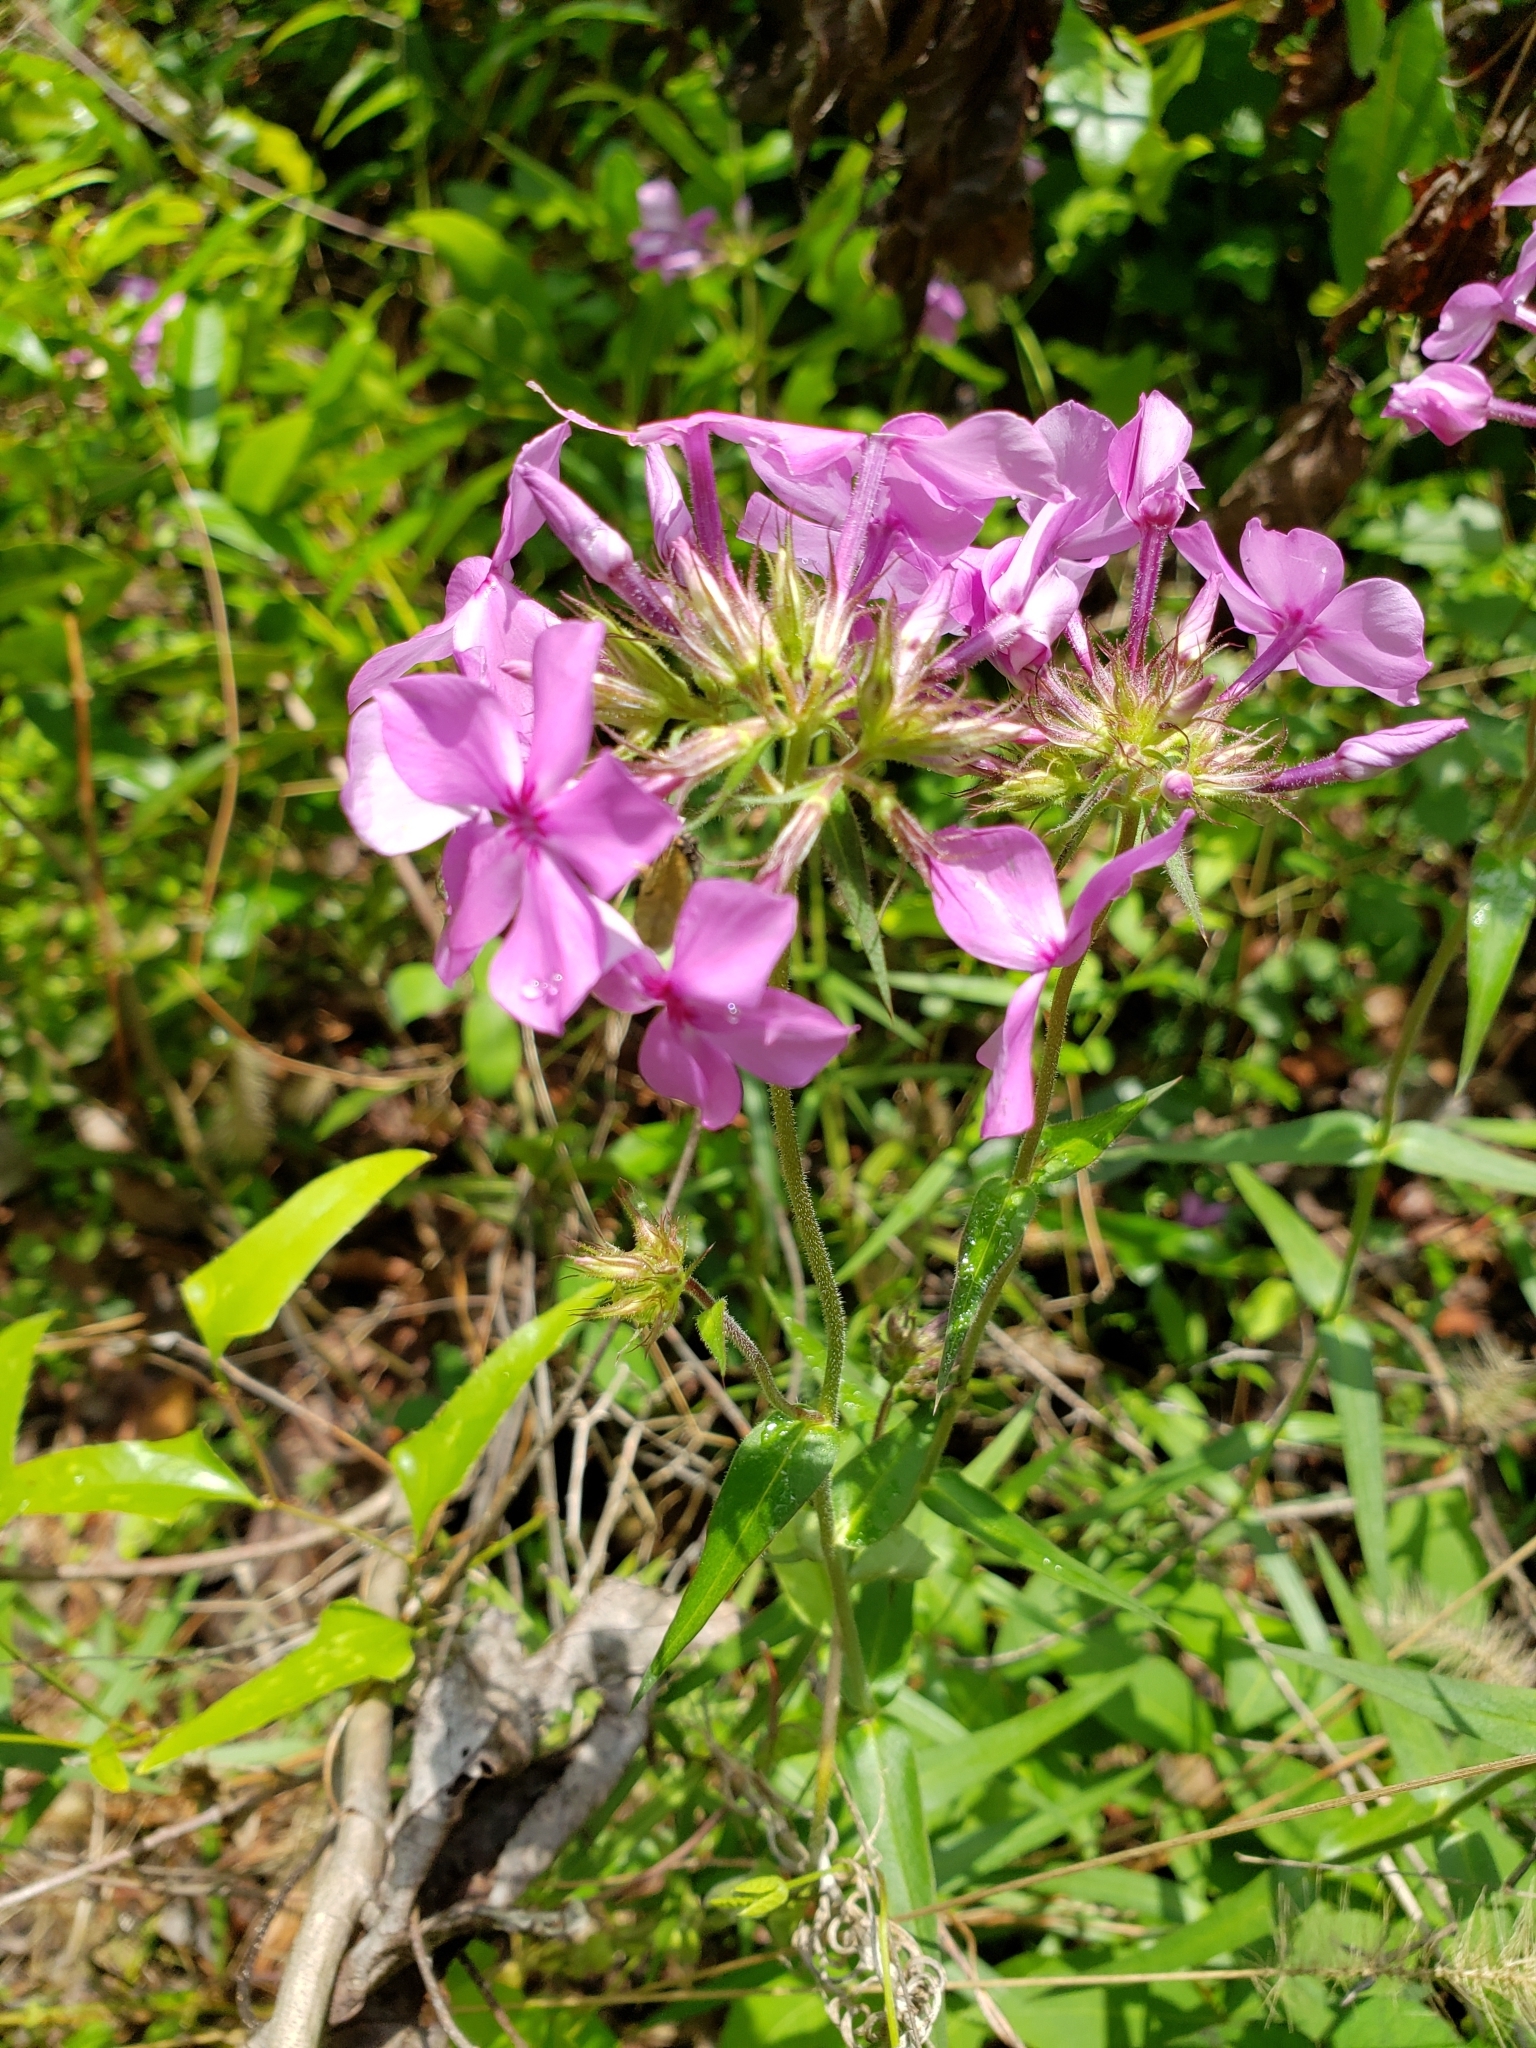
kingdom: Plantae
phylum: Tracheophyta
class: Magnoliopsida
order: Ericales
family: Polemoniaceae
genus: Phlox
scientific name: Phlox pilosa
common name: Prairie phlox
